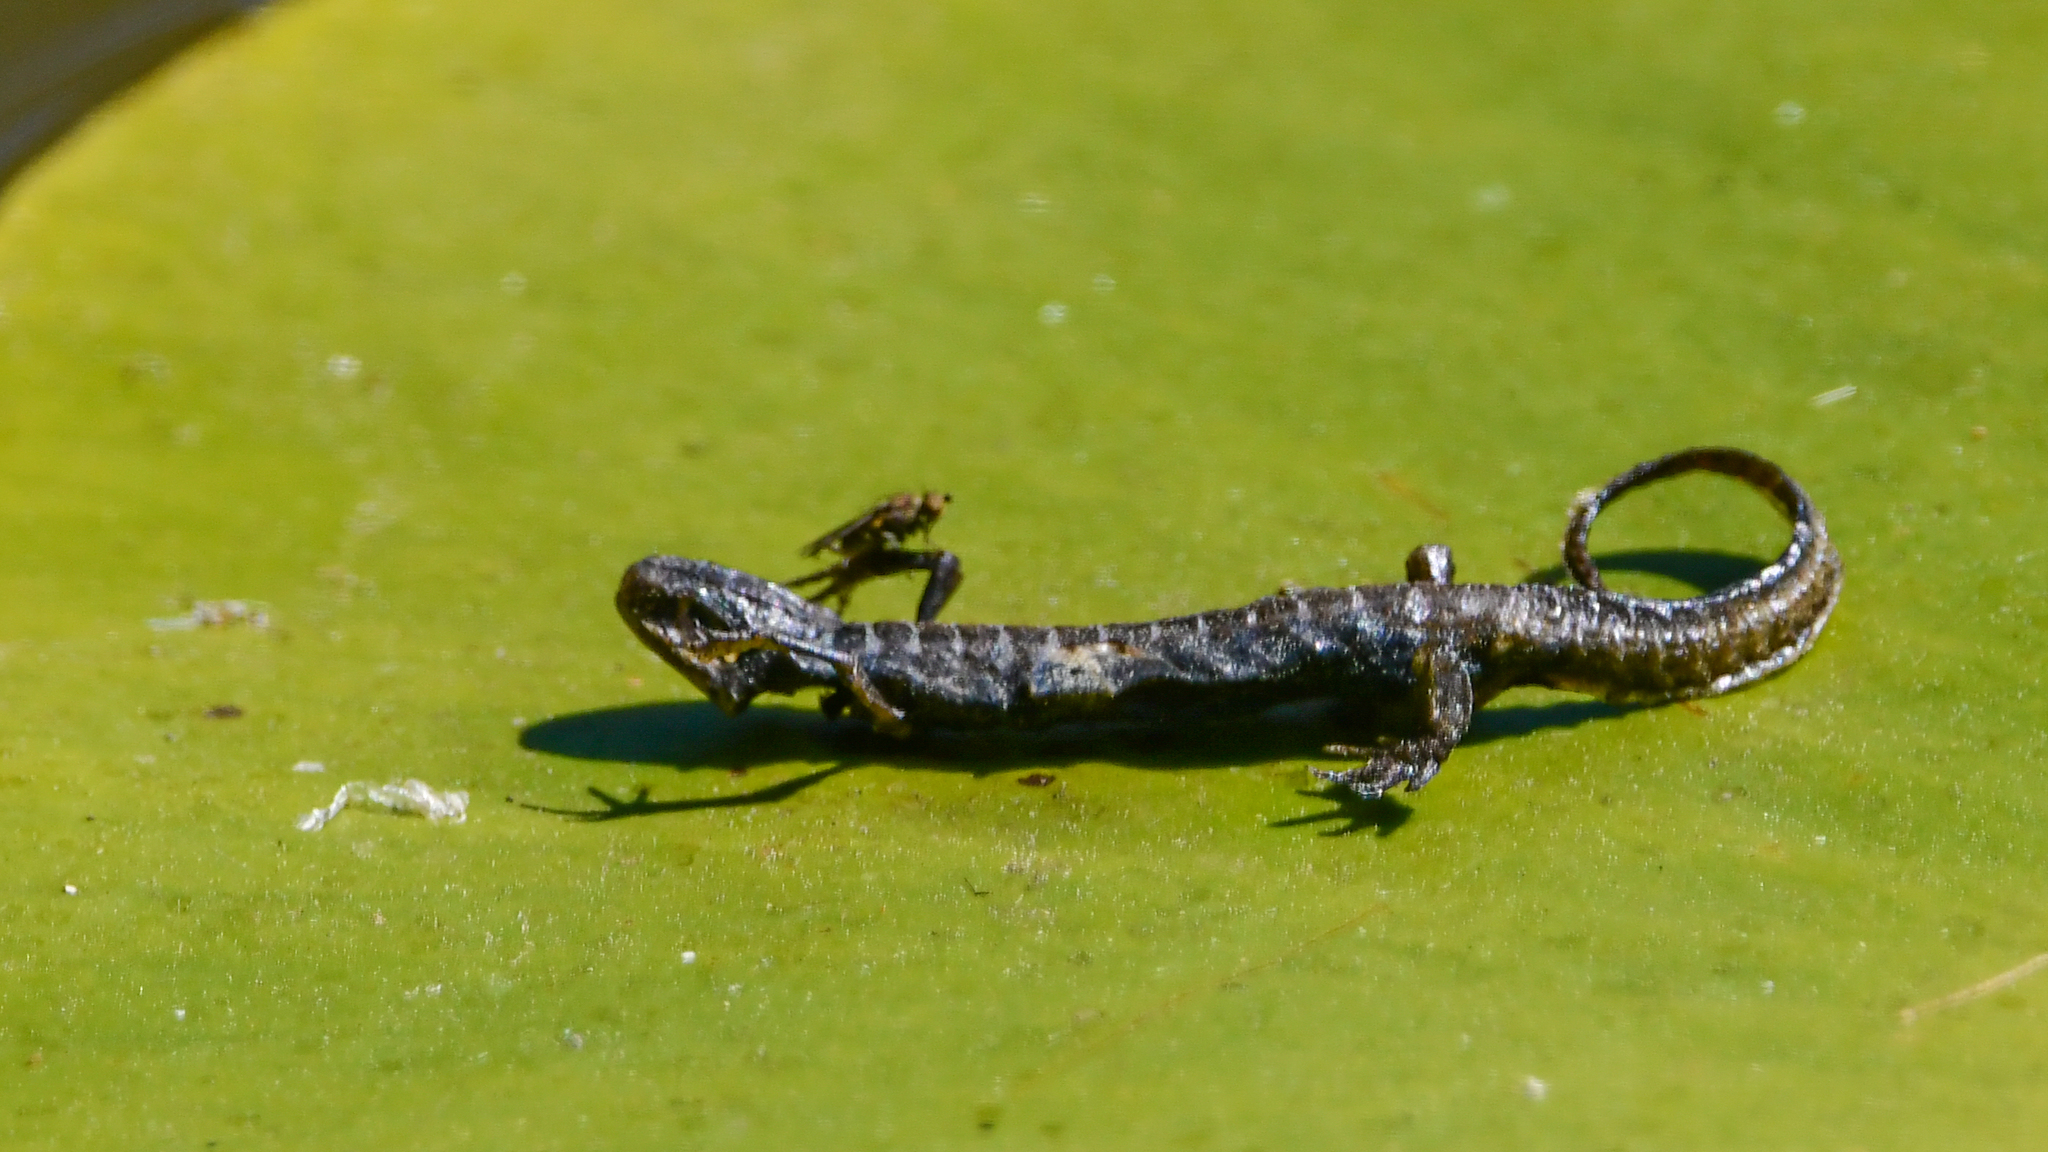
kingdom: Animalia
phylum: Chordata
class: Amphibia
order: Caudata
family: Salamandridae
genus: Lissotriton
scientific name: Lissotriton vulgaris
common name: Smooth newt
